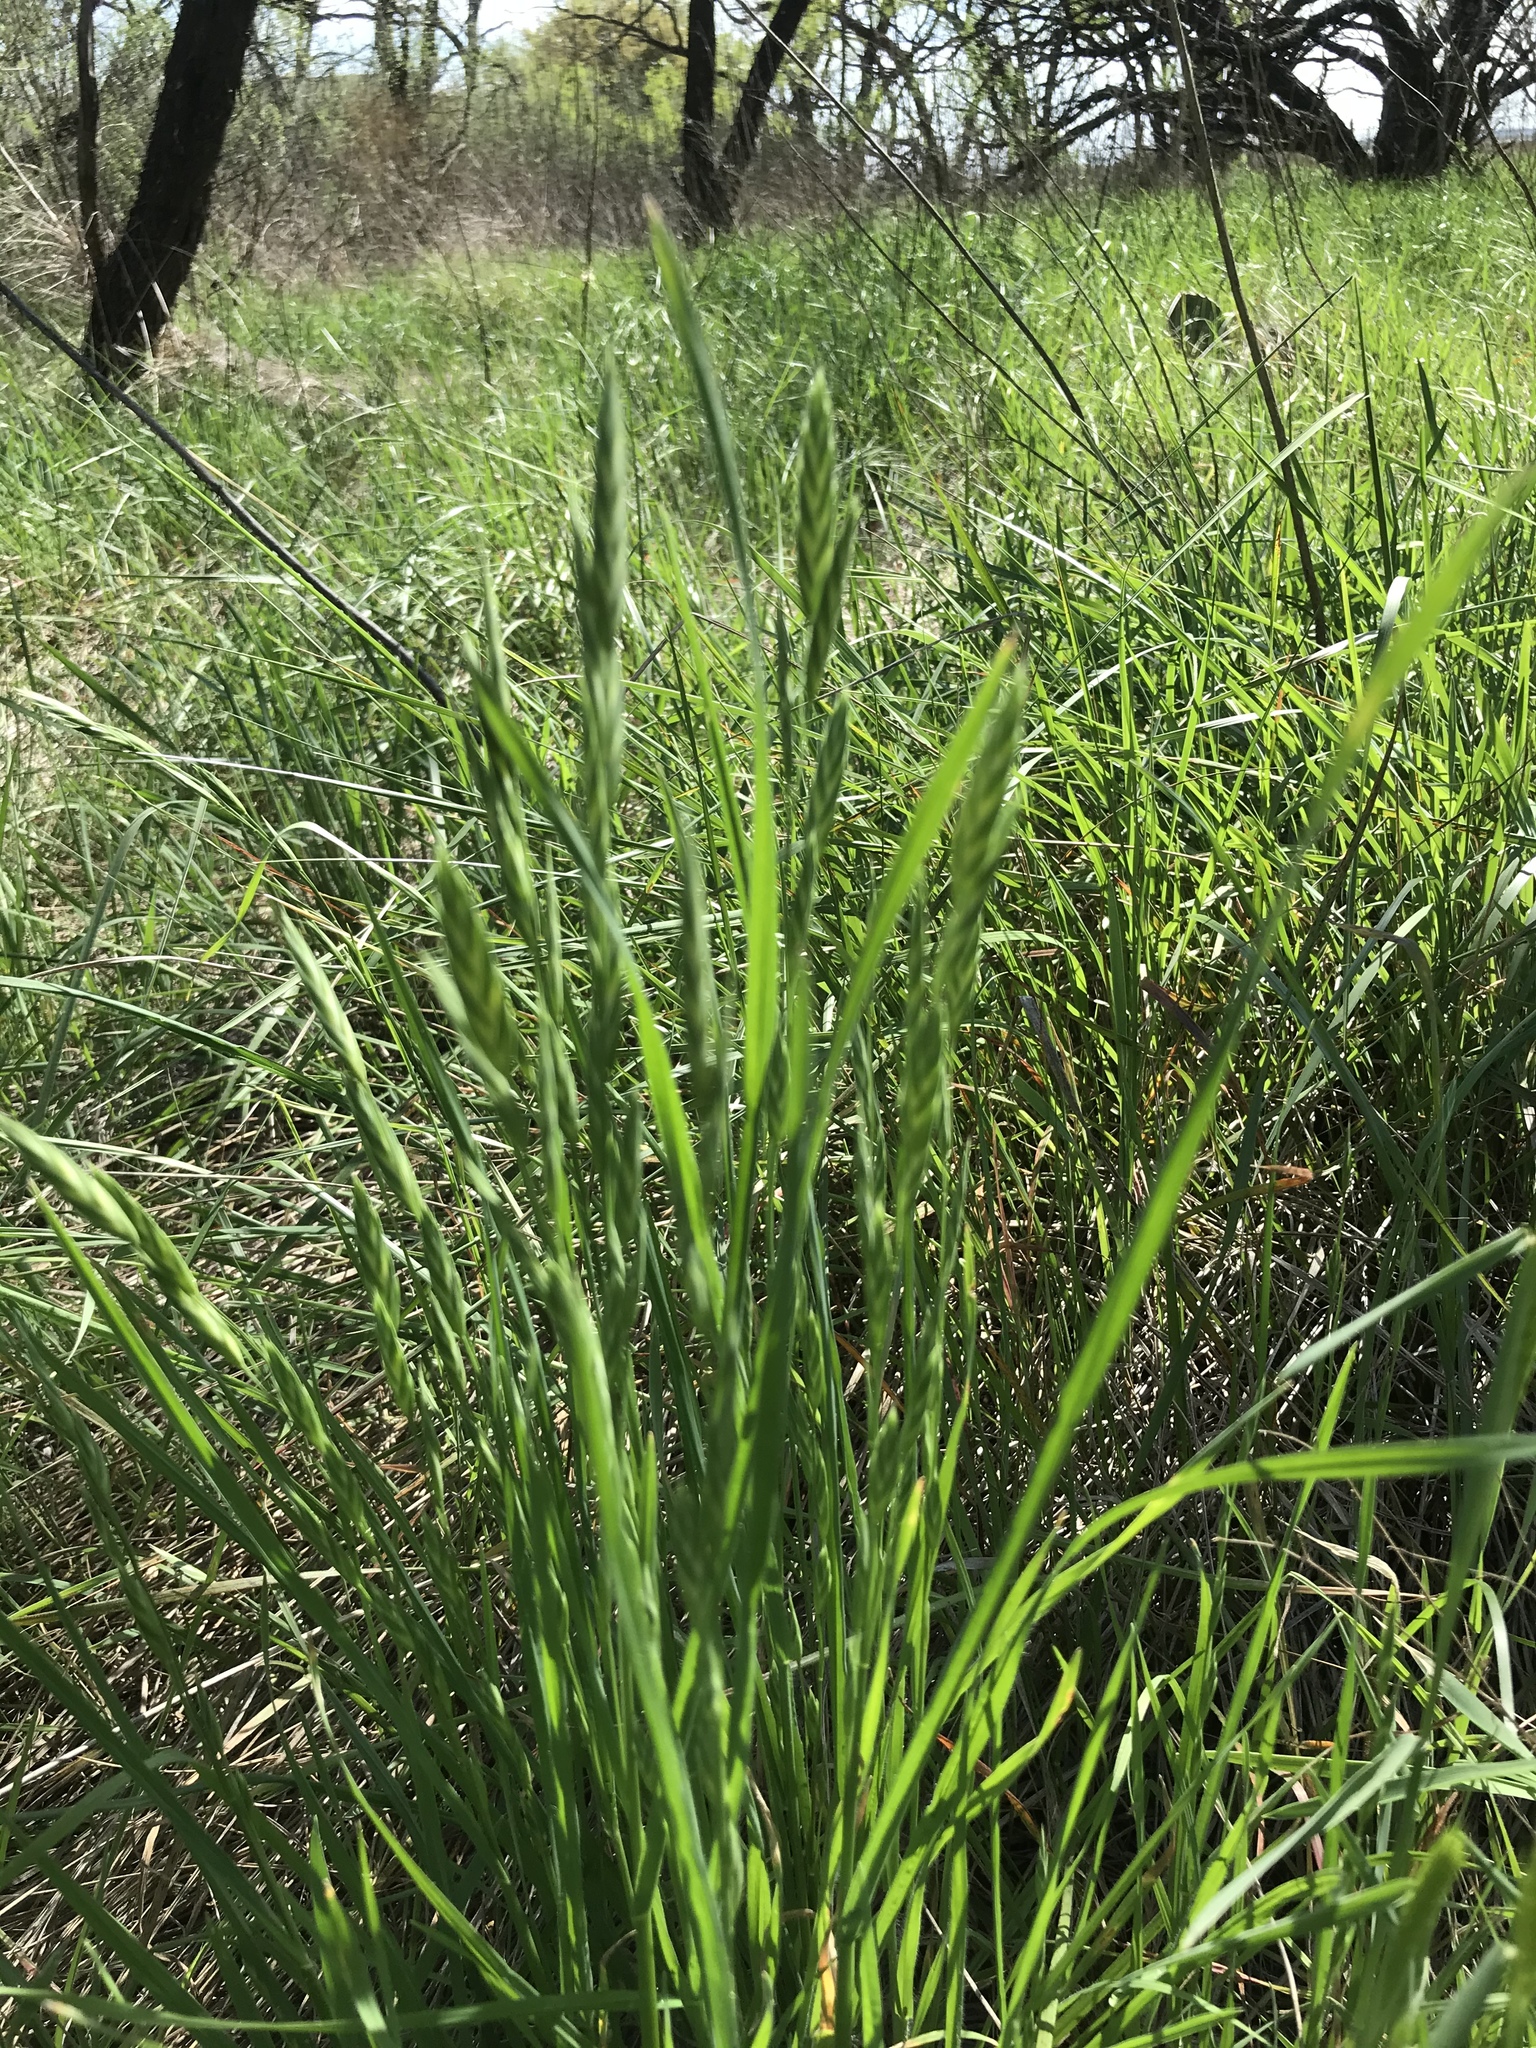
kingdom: Plantae
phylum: Tracheophyta
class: Liliopsida
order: Poales
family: Poaceae
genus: Bromus
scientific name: Bromus catharticus
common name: Rescuegrass
